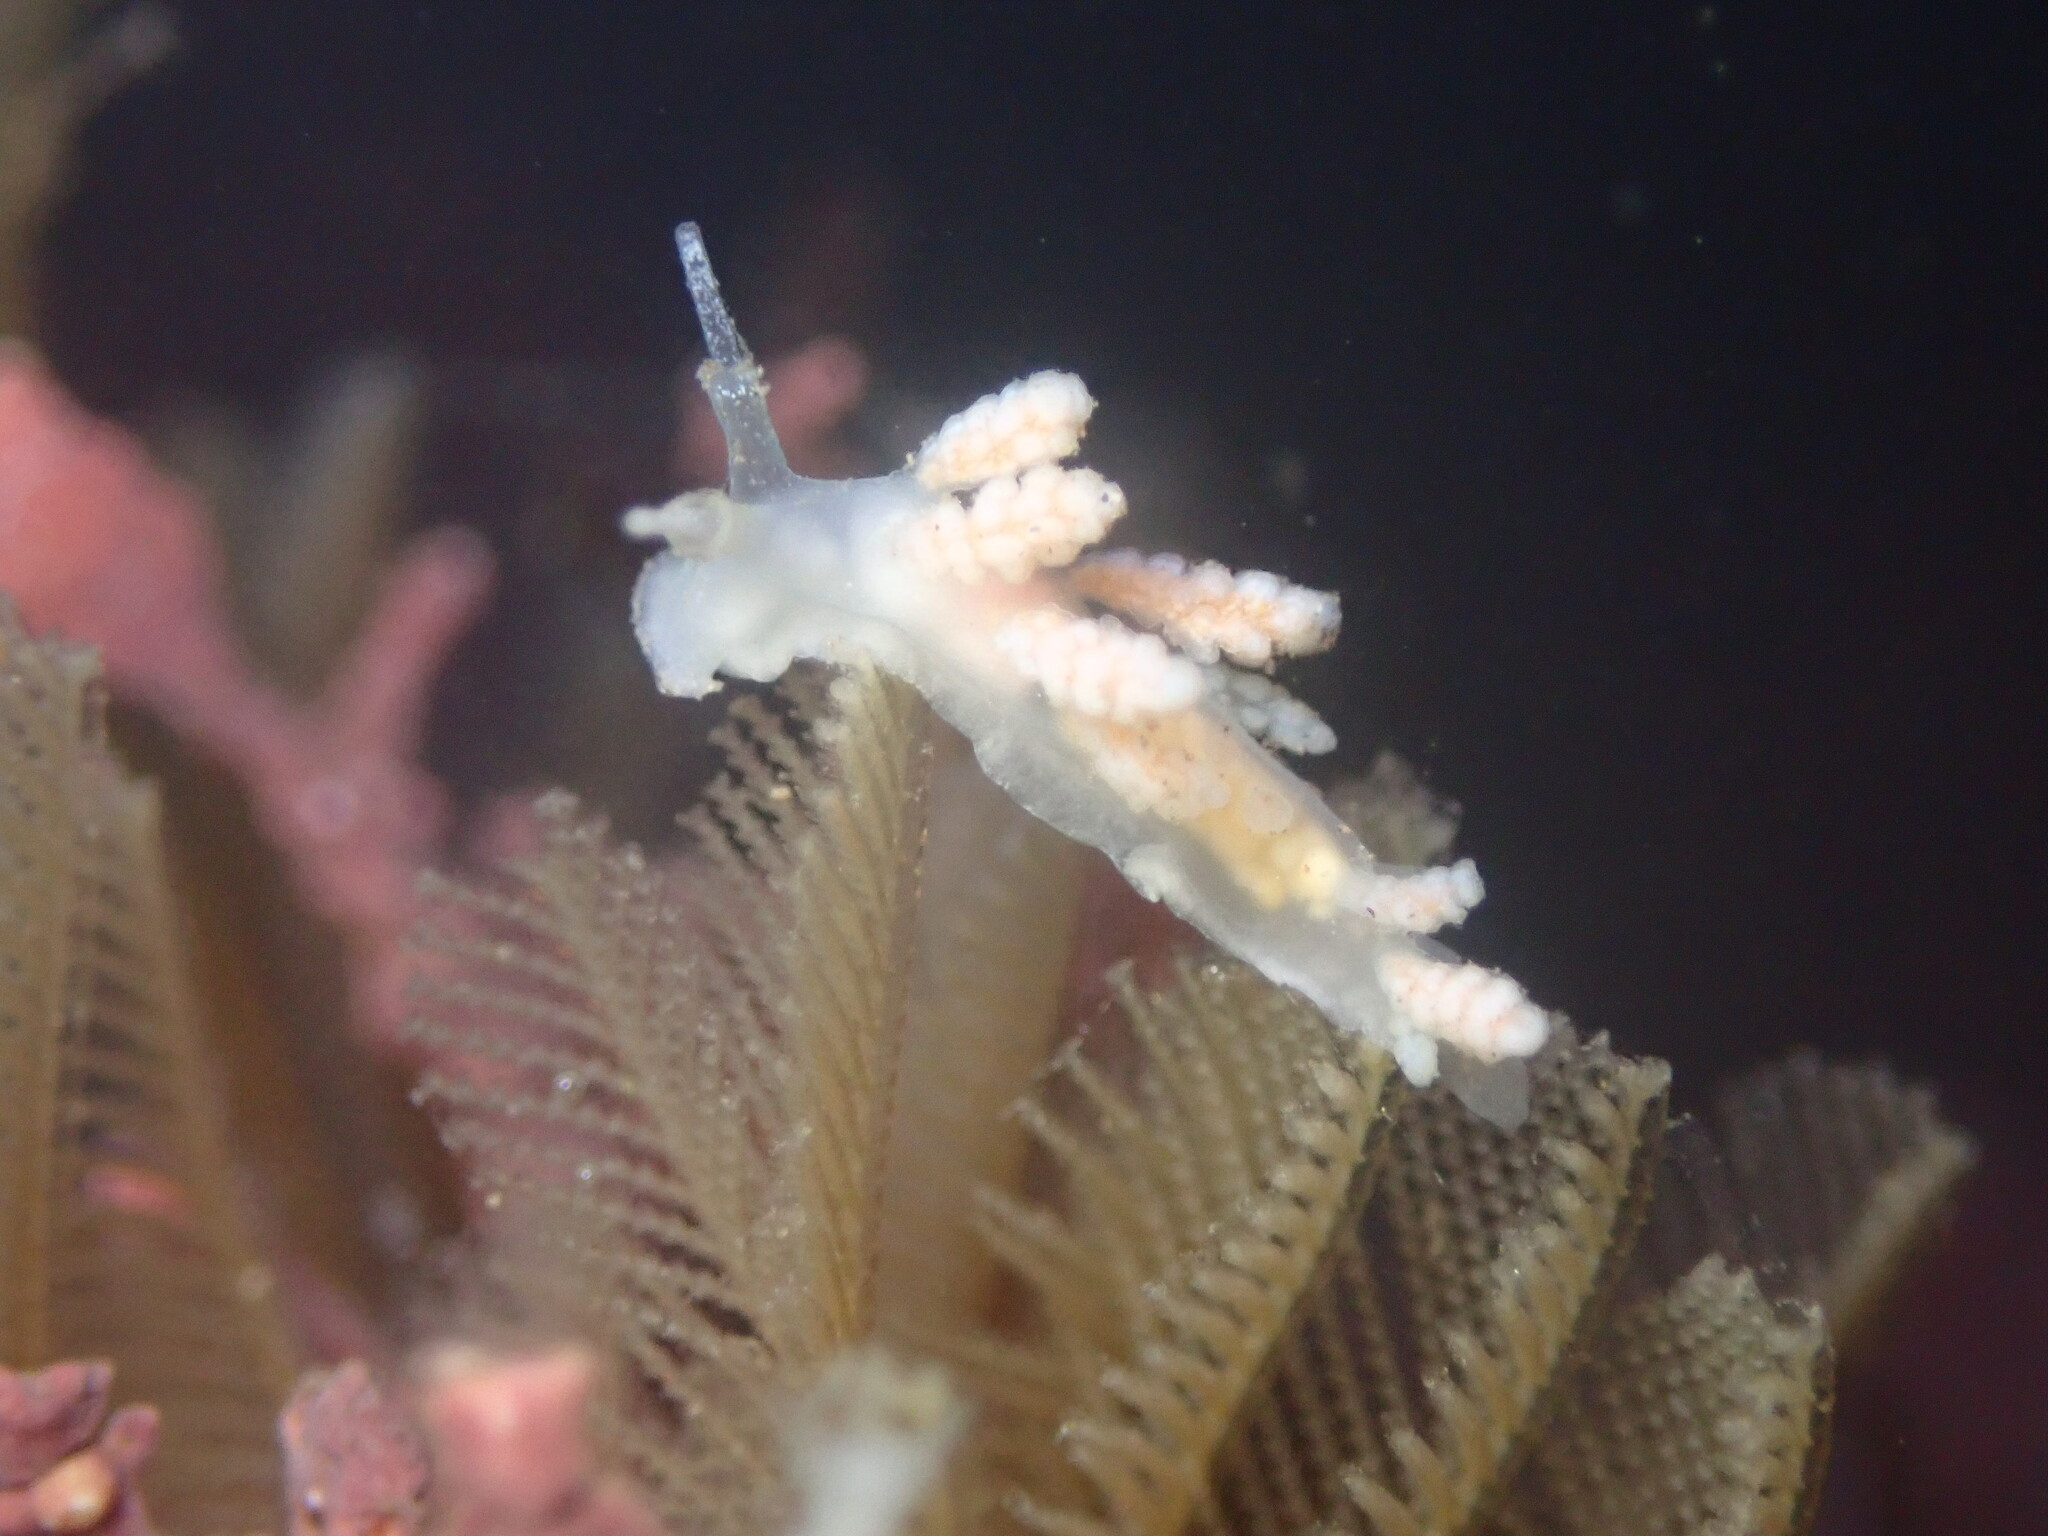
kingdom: Animalia
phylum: Mollusca
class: Gastropoda
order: Nudibranchia
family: Dotidae
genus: Doto
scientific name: Doto amyra
